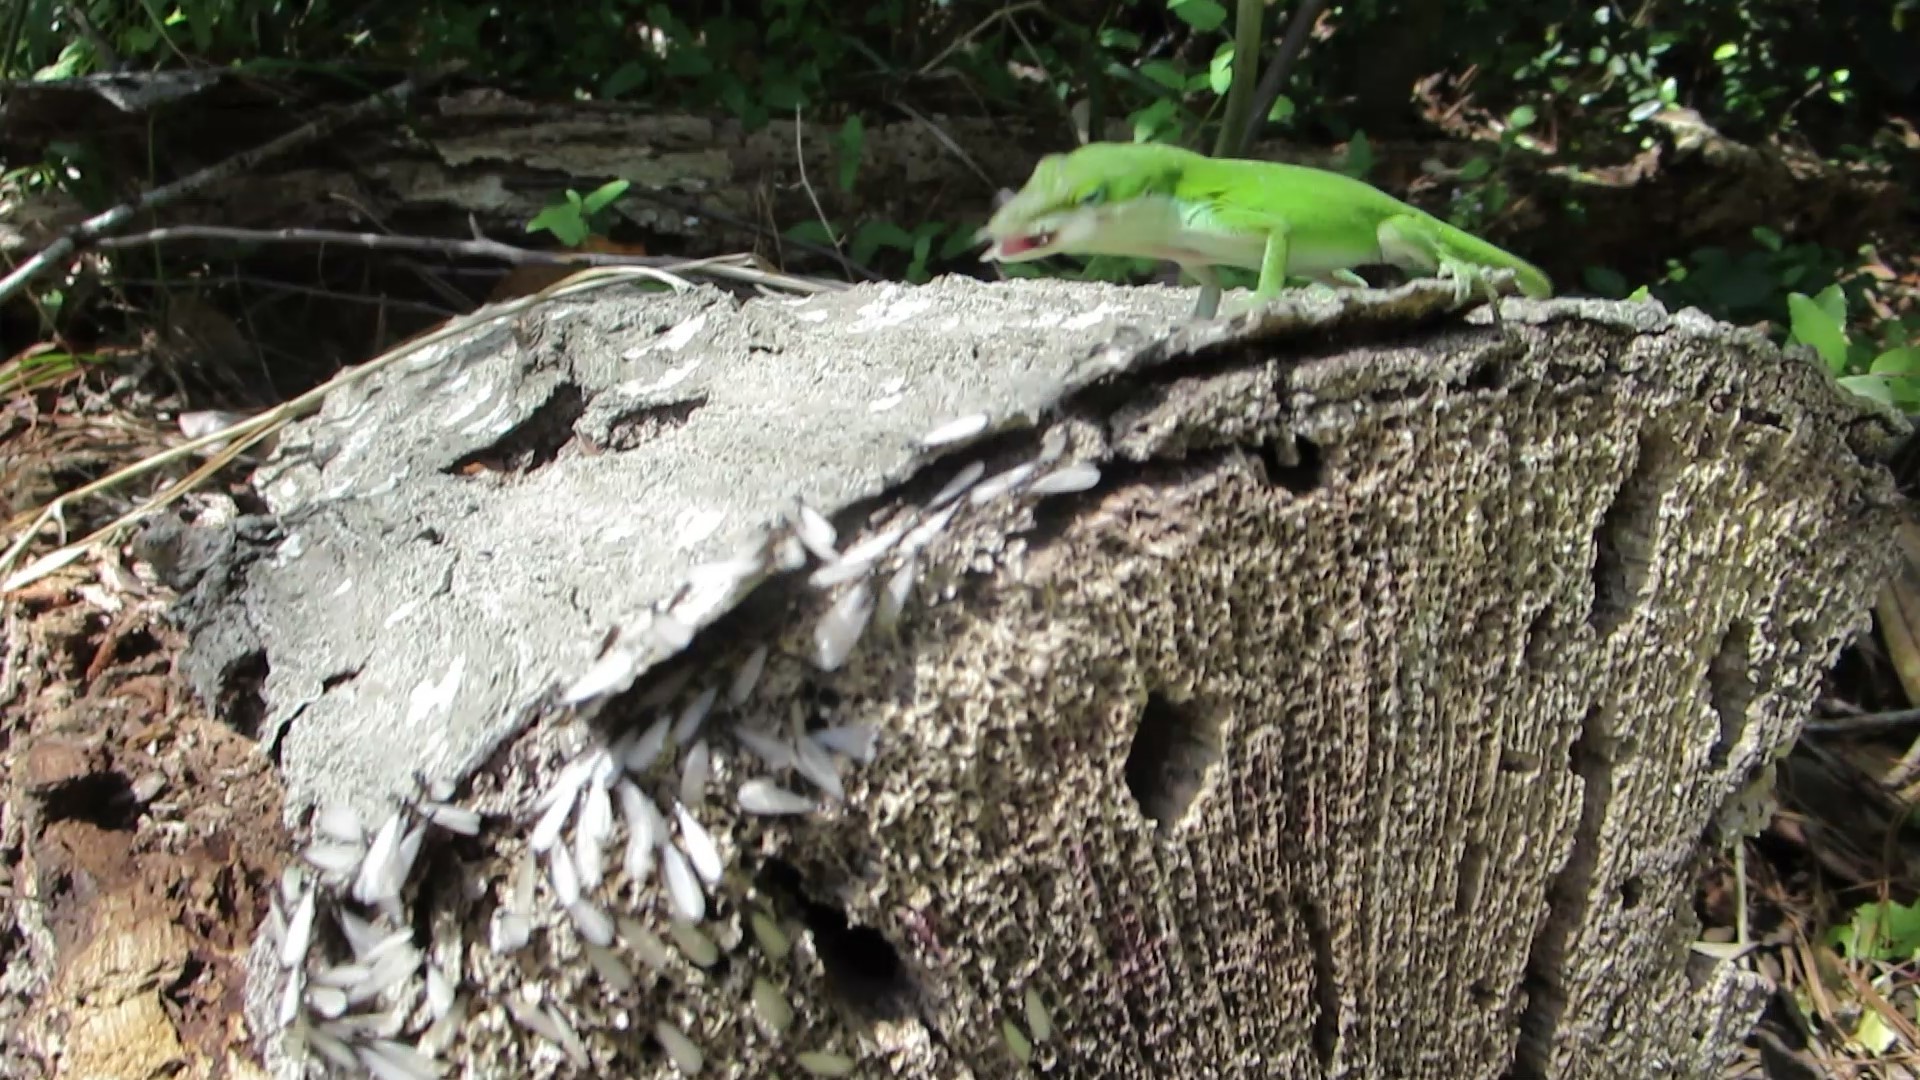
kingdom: Animalia
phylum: Chordata
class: Squamata
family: Dactyloidae
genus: Anolis
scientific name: Anolis carolinensis
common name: Green anole
